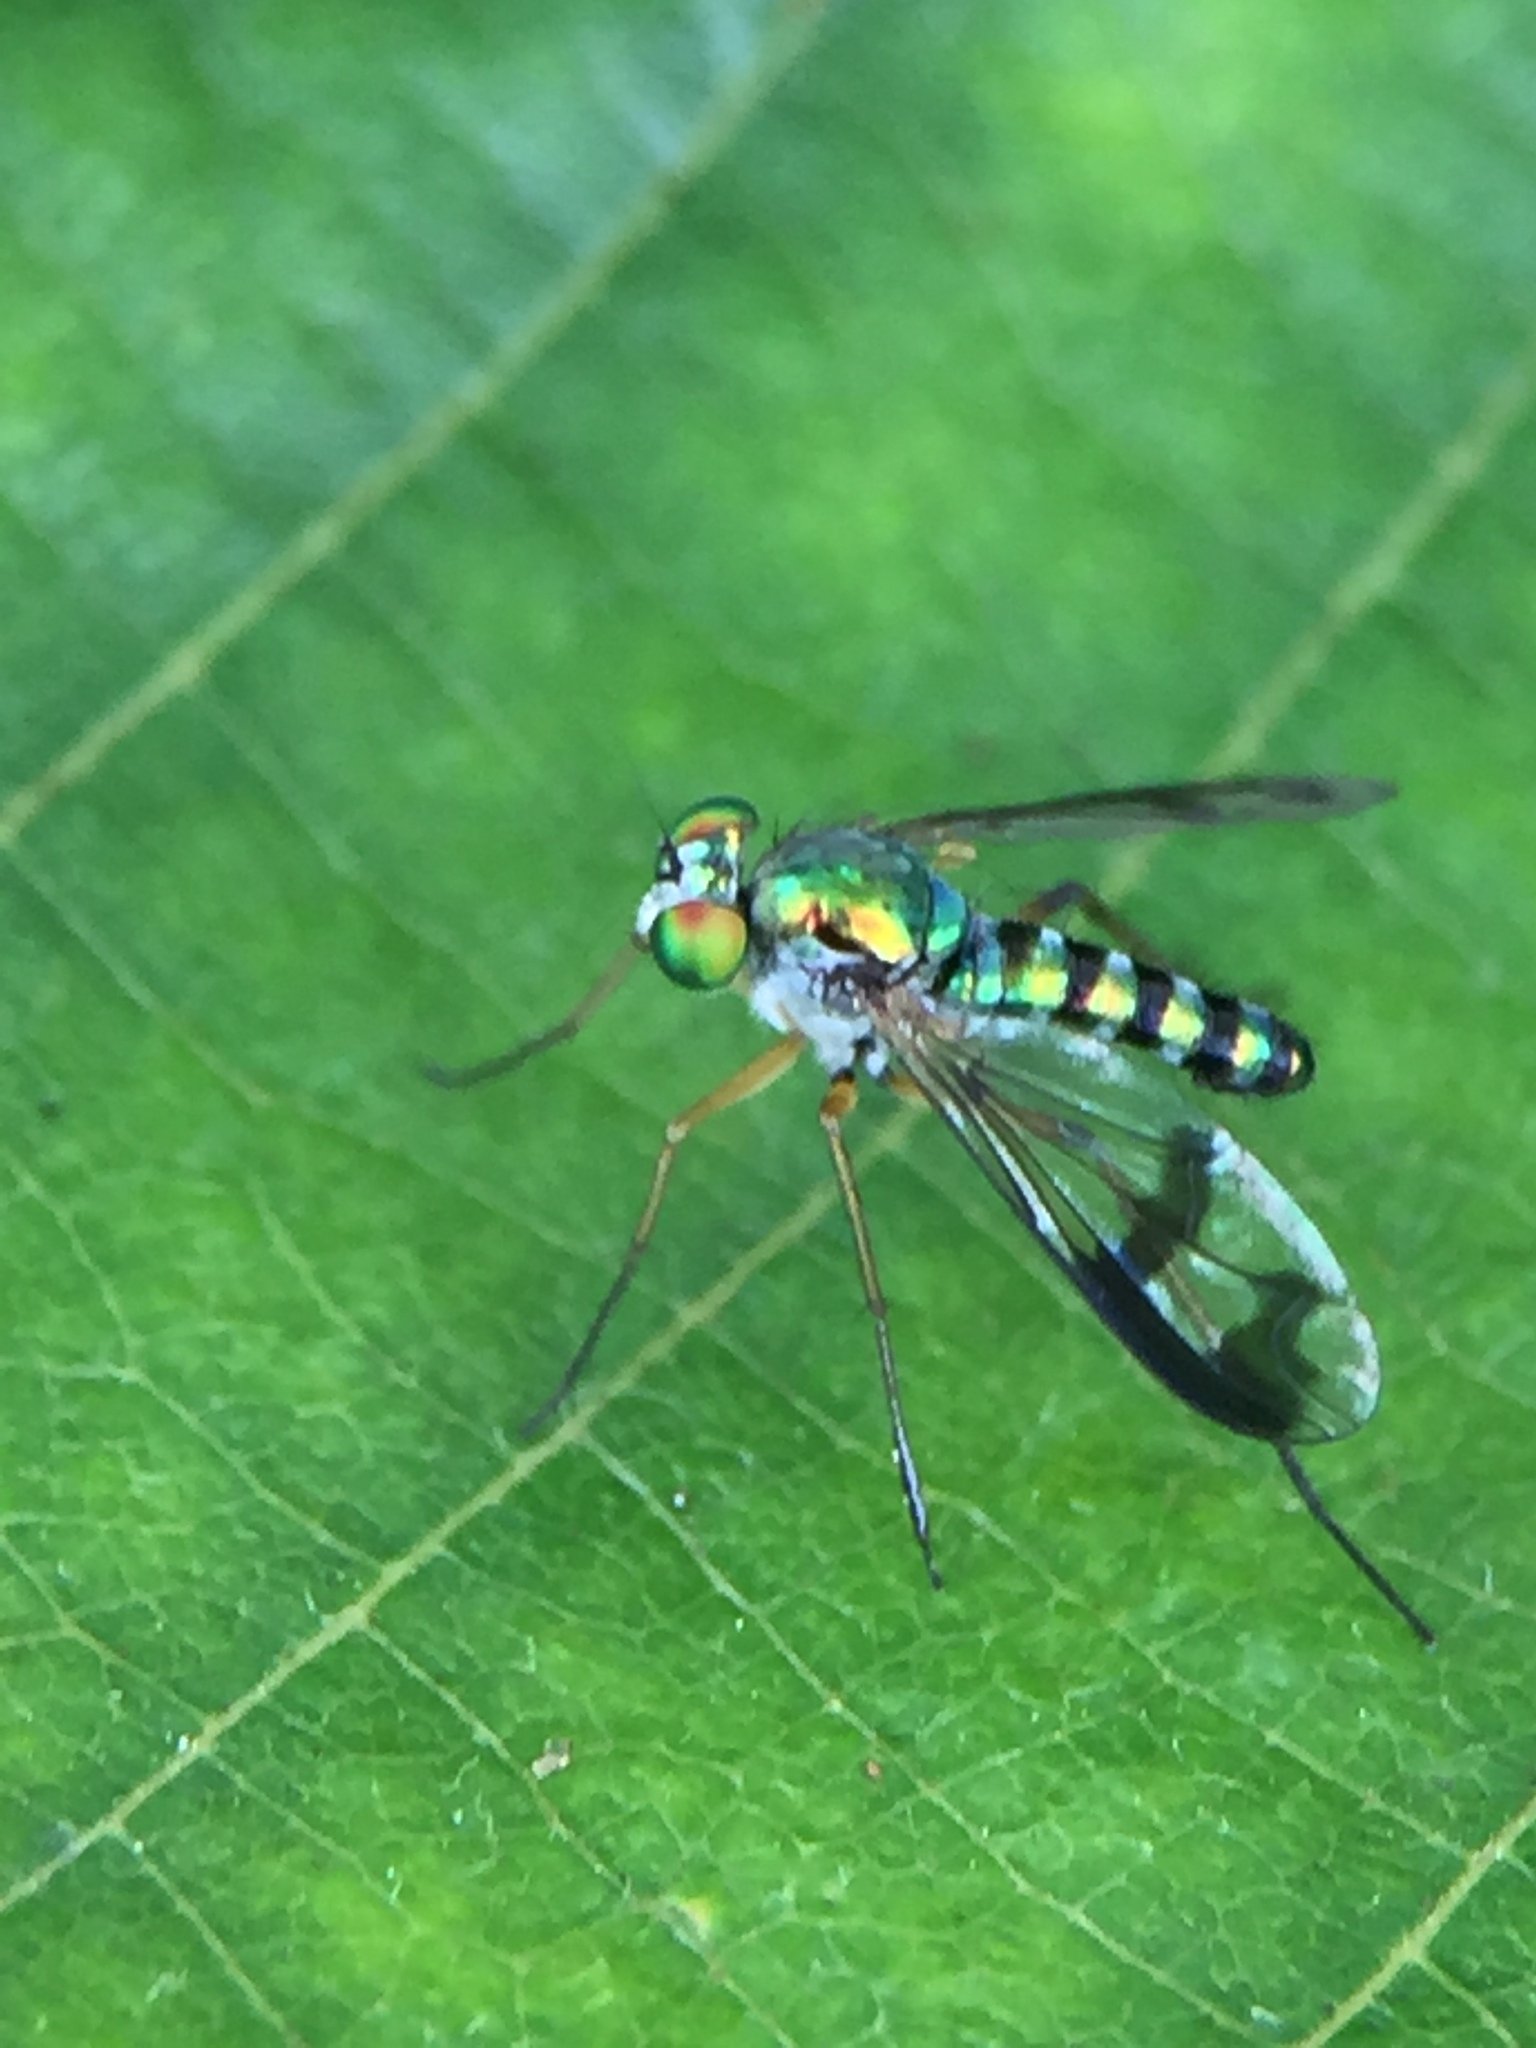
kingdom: Animalia
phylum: Arthropoda
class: Insecta
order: Diptera
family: Dolichopodidae
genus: Austrosciapus
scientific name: Austrosciapus proximus
